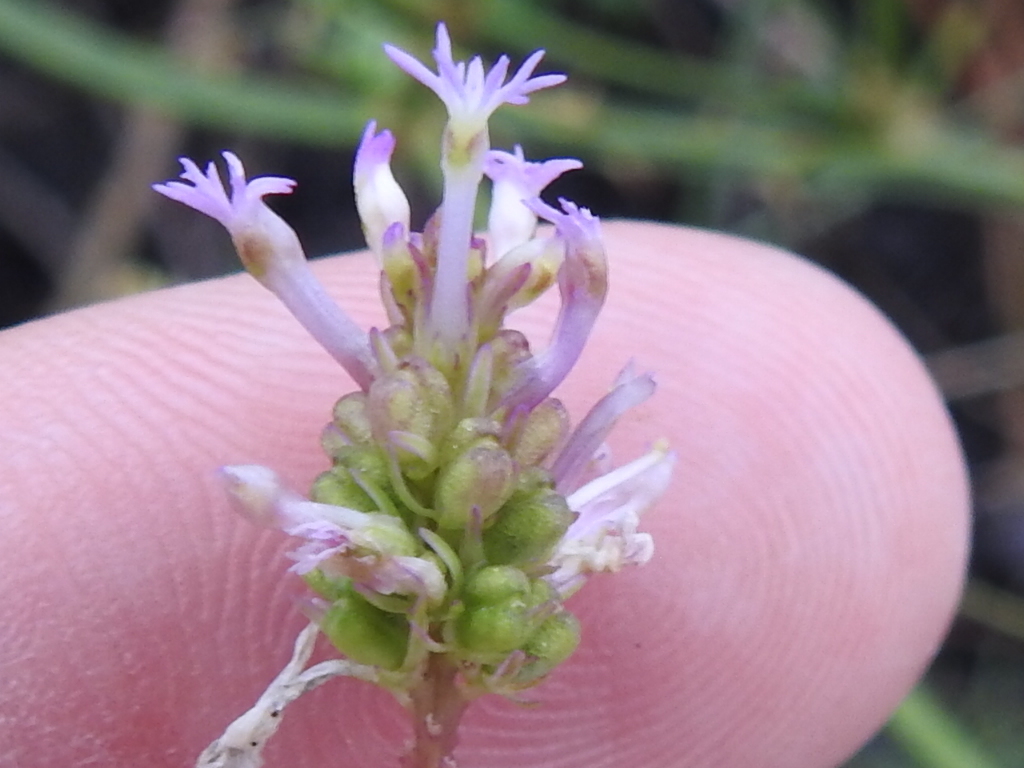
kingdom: Plantae
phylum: Tracheophyta
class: Magnoliopsida
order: Fabales
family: Polygalaceae
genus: Polygala
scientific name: Polygala incarnata
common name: Pink milkwort
